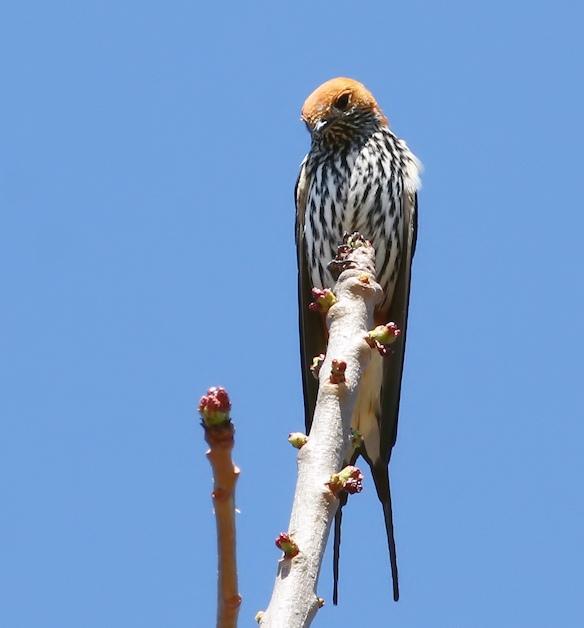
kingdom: Animalia
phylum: Chordata
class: Aves
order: Passeriformes
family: Hirundinidae
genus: Cecropis
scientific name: Cecropis abyssinica
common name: Lesser striped-swallow
